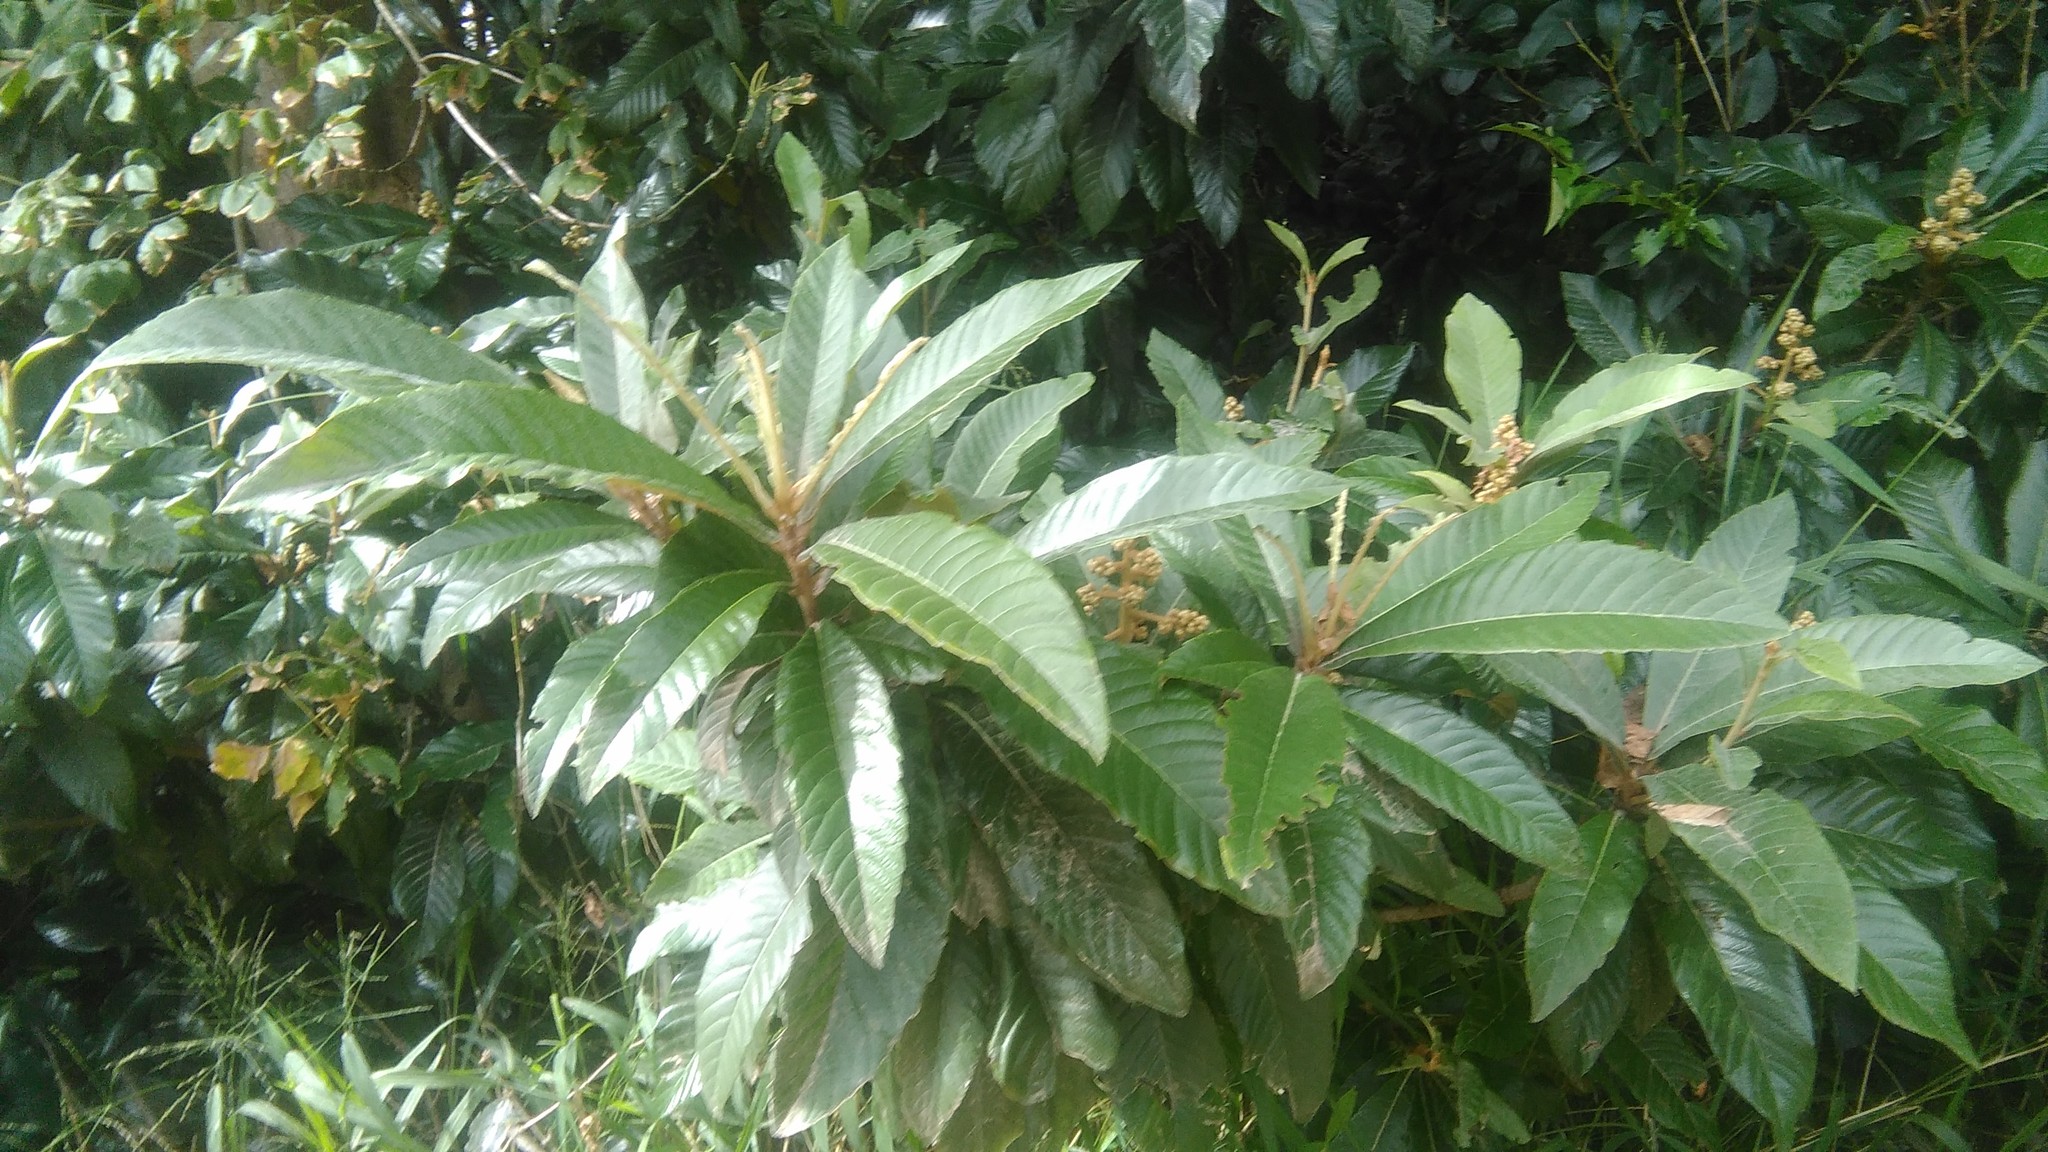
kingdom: Plantae
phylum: Tracheophyta
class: Magnoliopsida
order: Rosales
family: Rosaceae
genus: Rhaphiolepis
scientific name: Rhaphiolepis bibas
